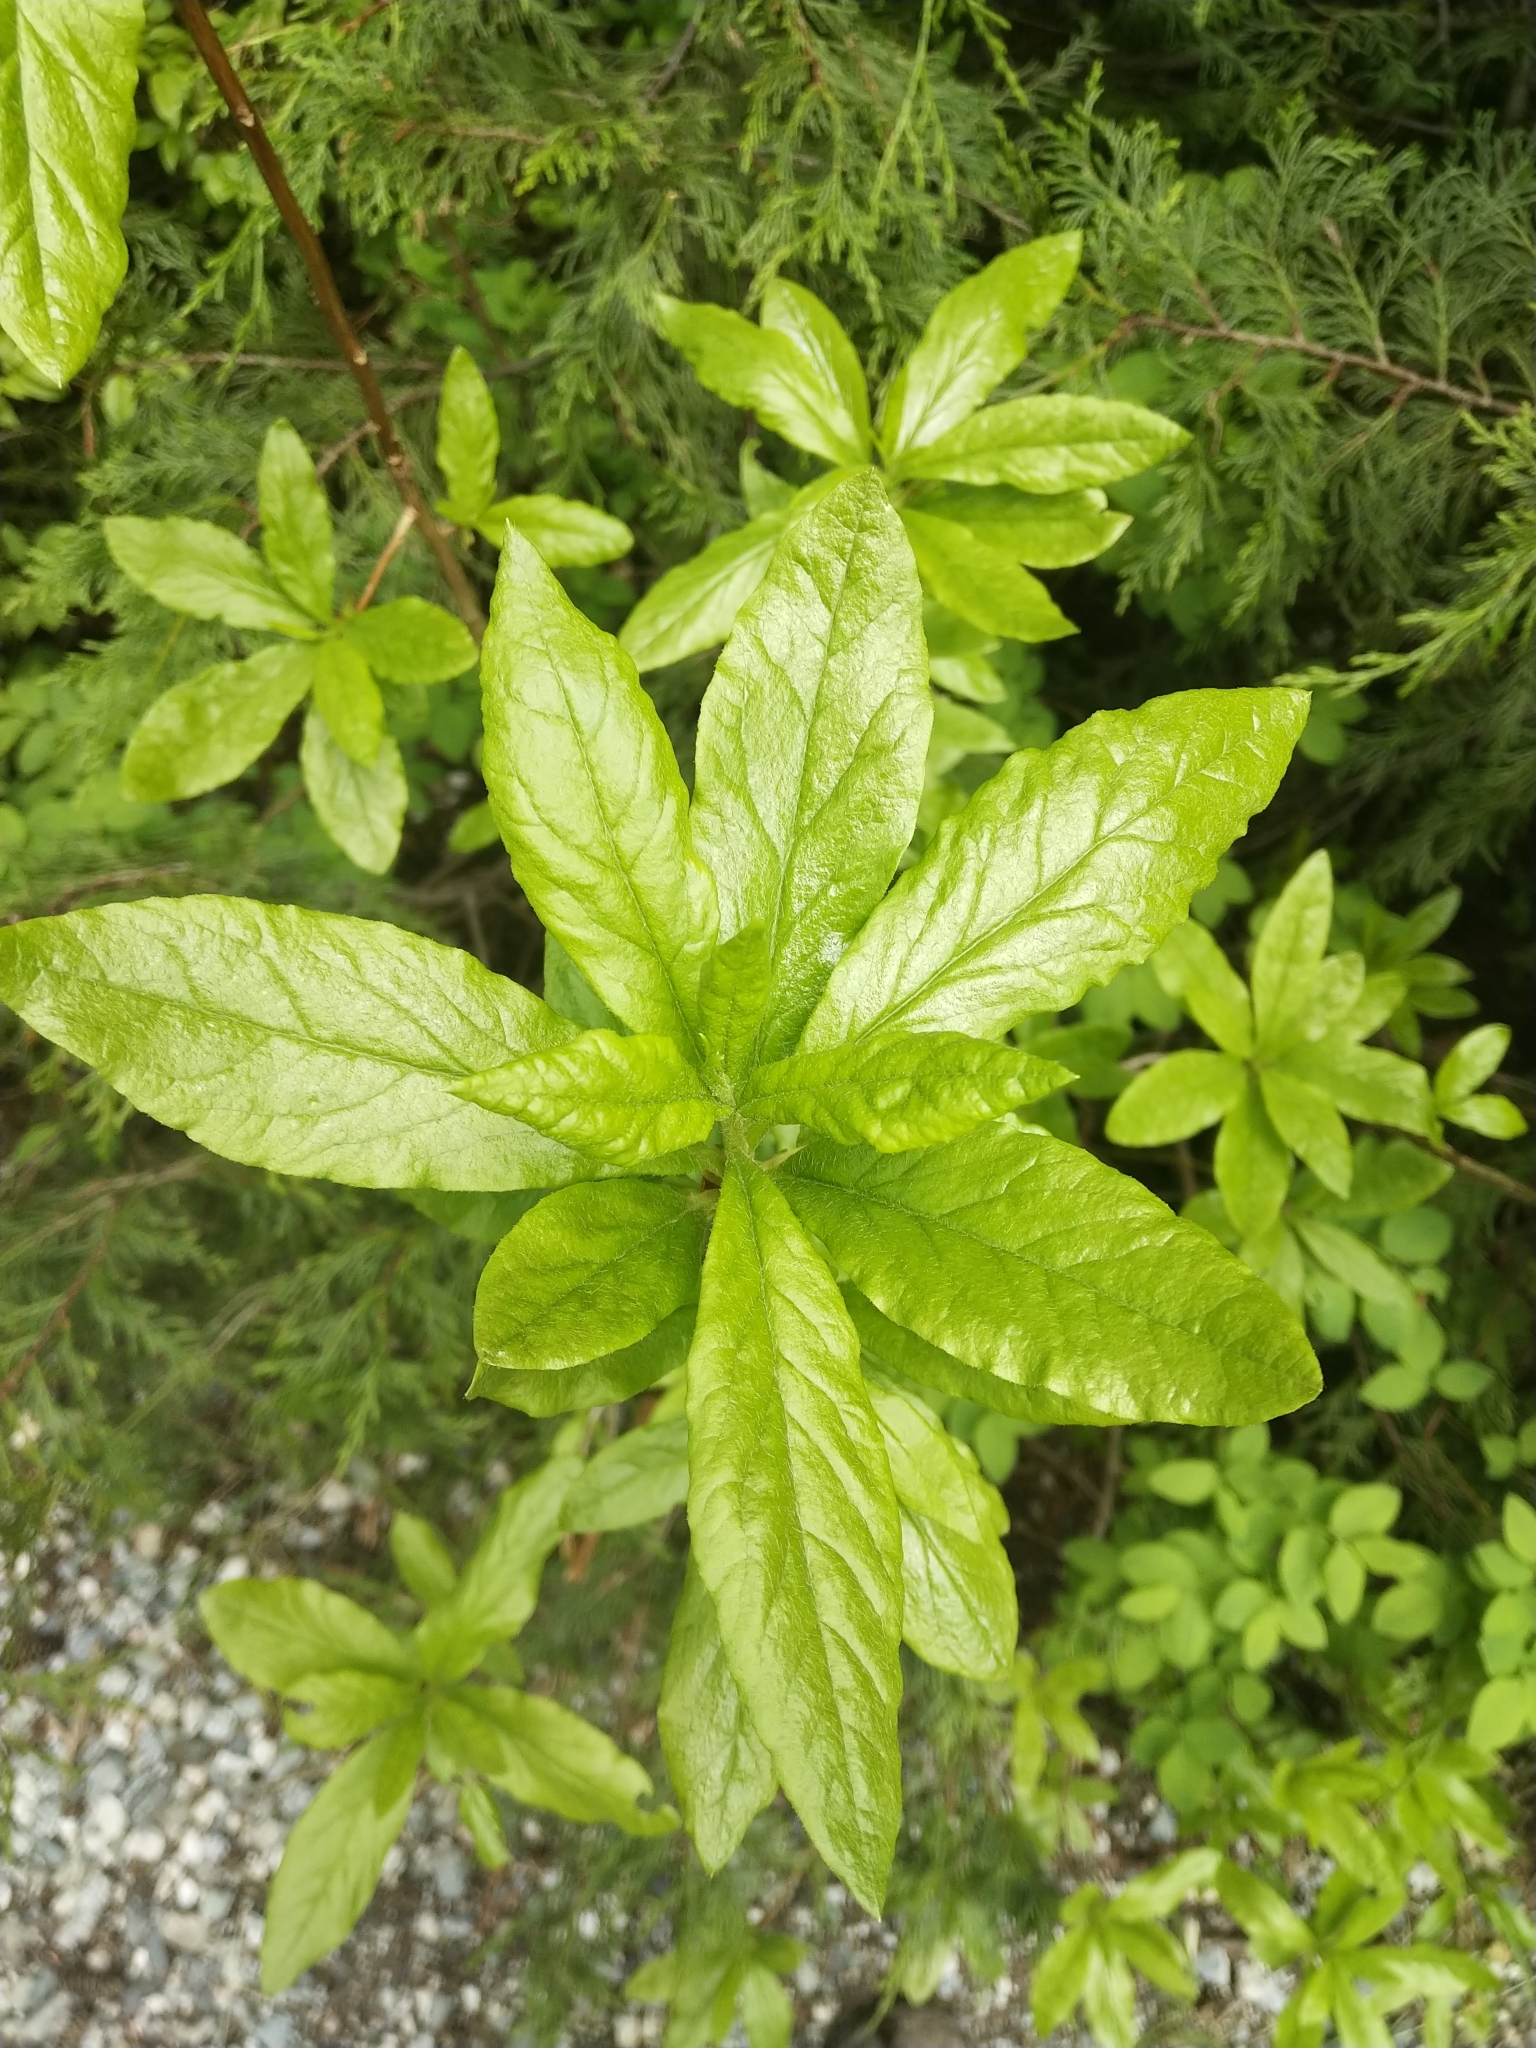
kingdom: Plantae
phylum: Tracheophyta
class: Magnoliopsida
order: Ericales
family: Ericaceae
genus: Rhododendron
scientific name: Rhododendron albiflorum
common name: White rhododendron
